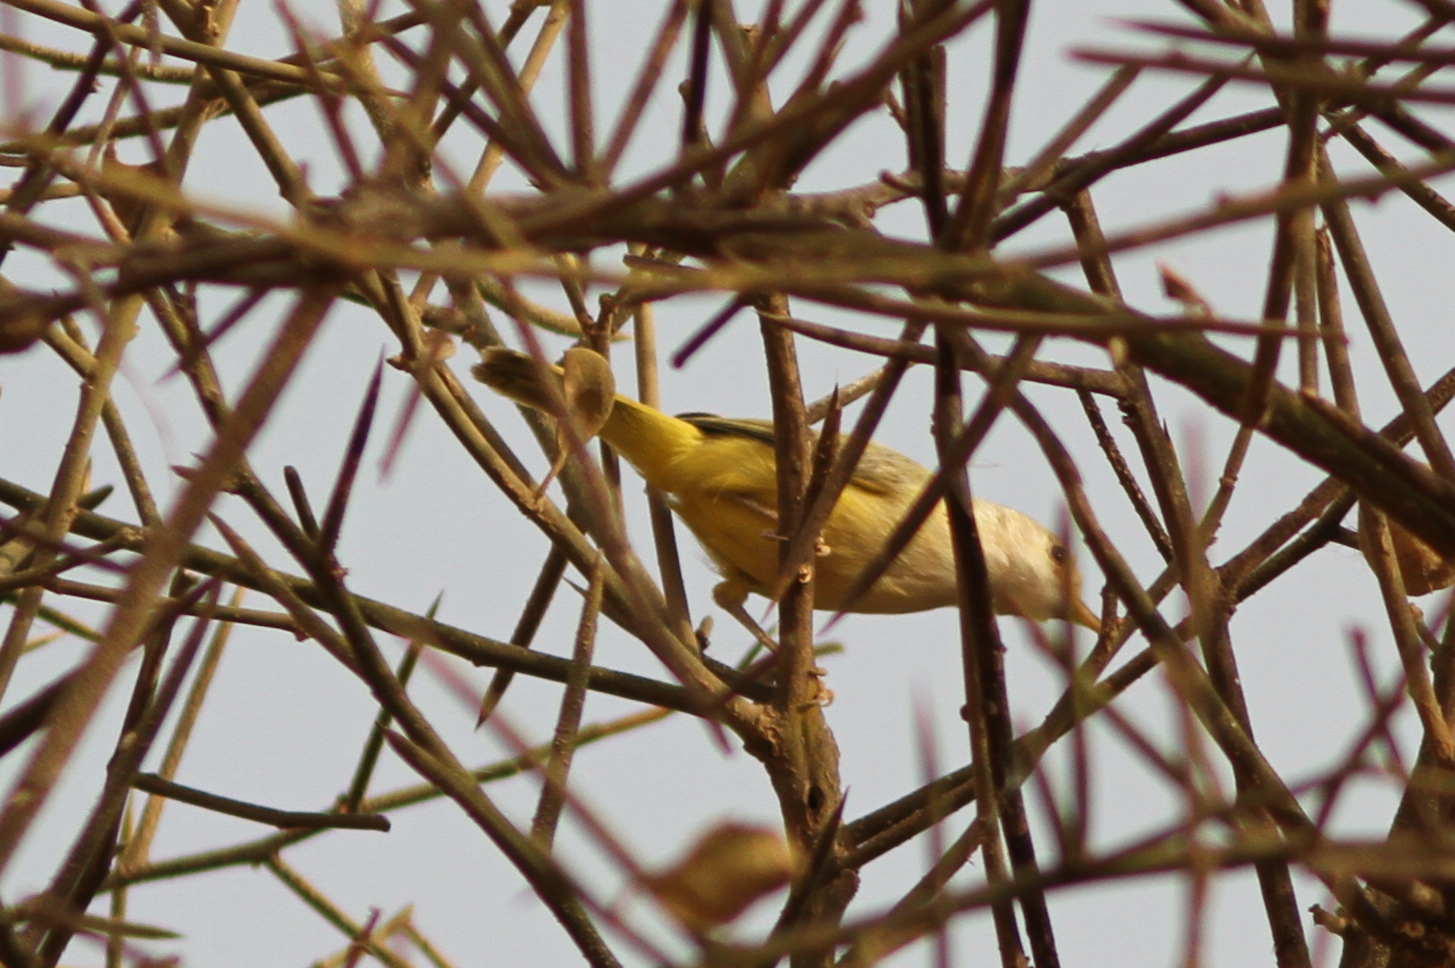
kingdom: Animalia
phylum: Chordata
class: Aves
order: Passeriformes
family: Cisticolidae
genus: Eremomela
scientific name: Eremomela pusilla
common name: Senegal eremomela
